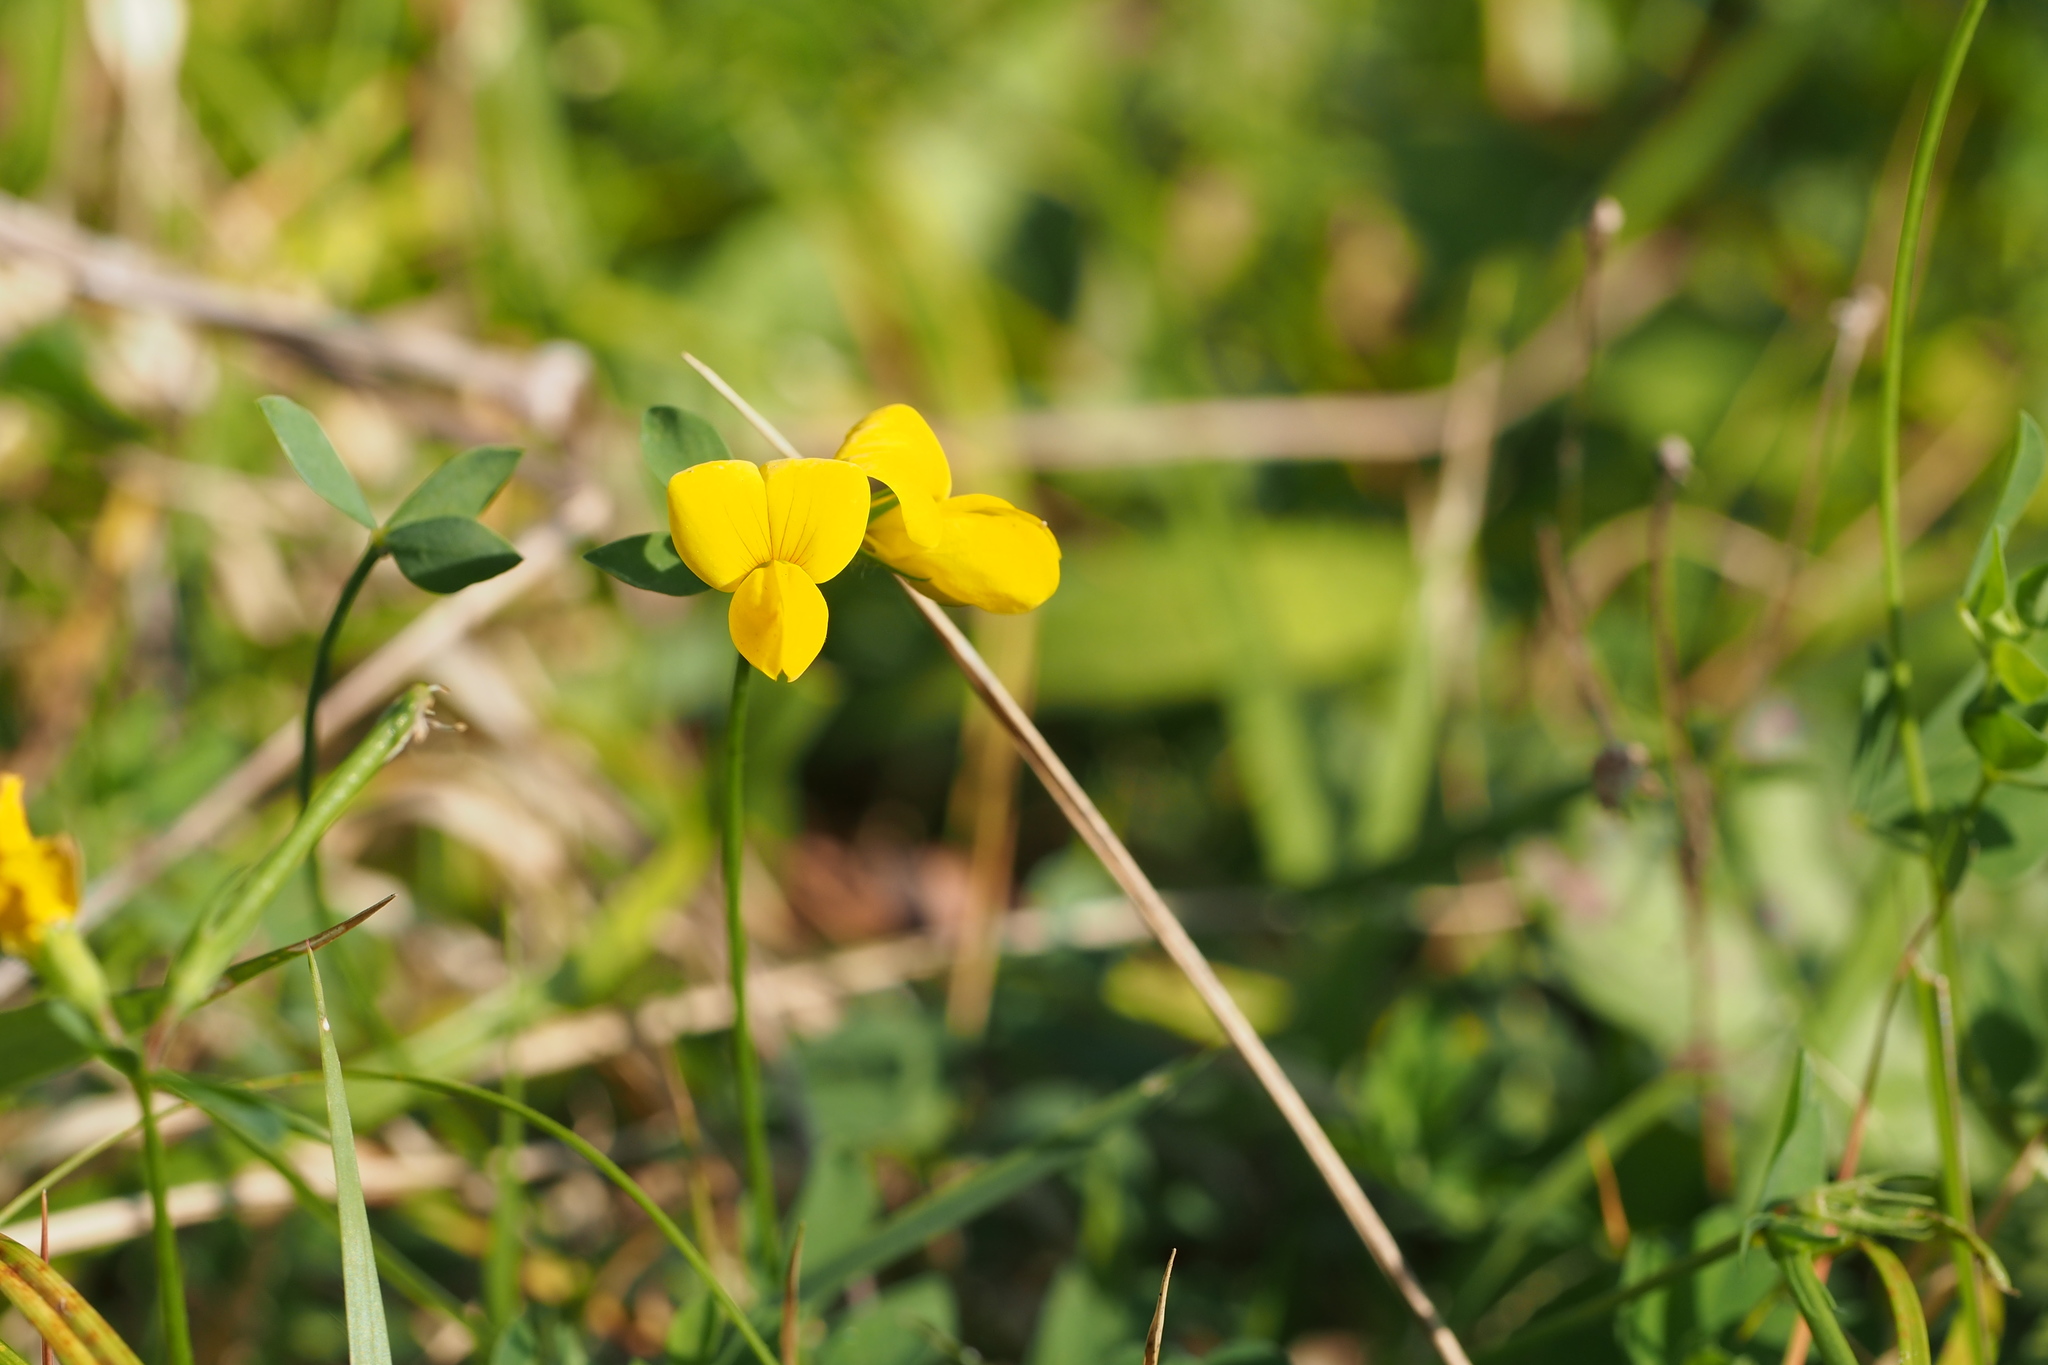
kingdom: Plantae
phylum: Tracheophyta
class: Magnoliopsida
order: Fabales
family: Fabaceae
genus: Lotus
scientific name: Lotus japonicus
